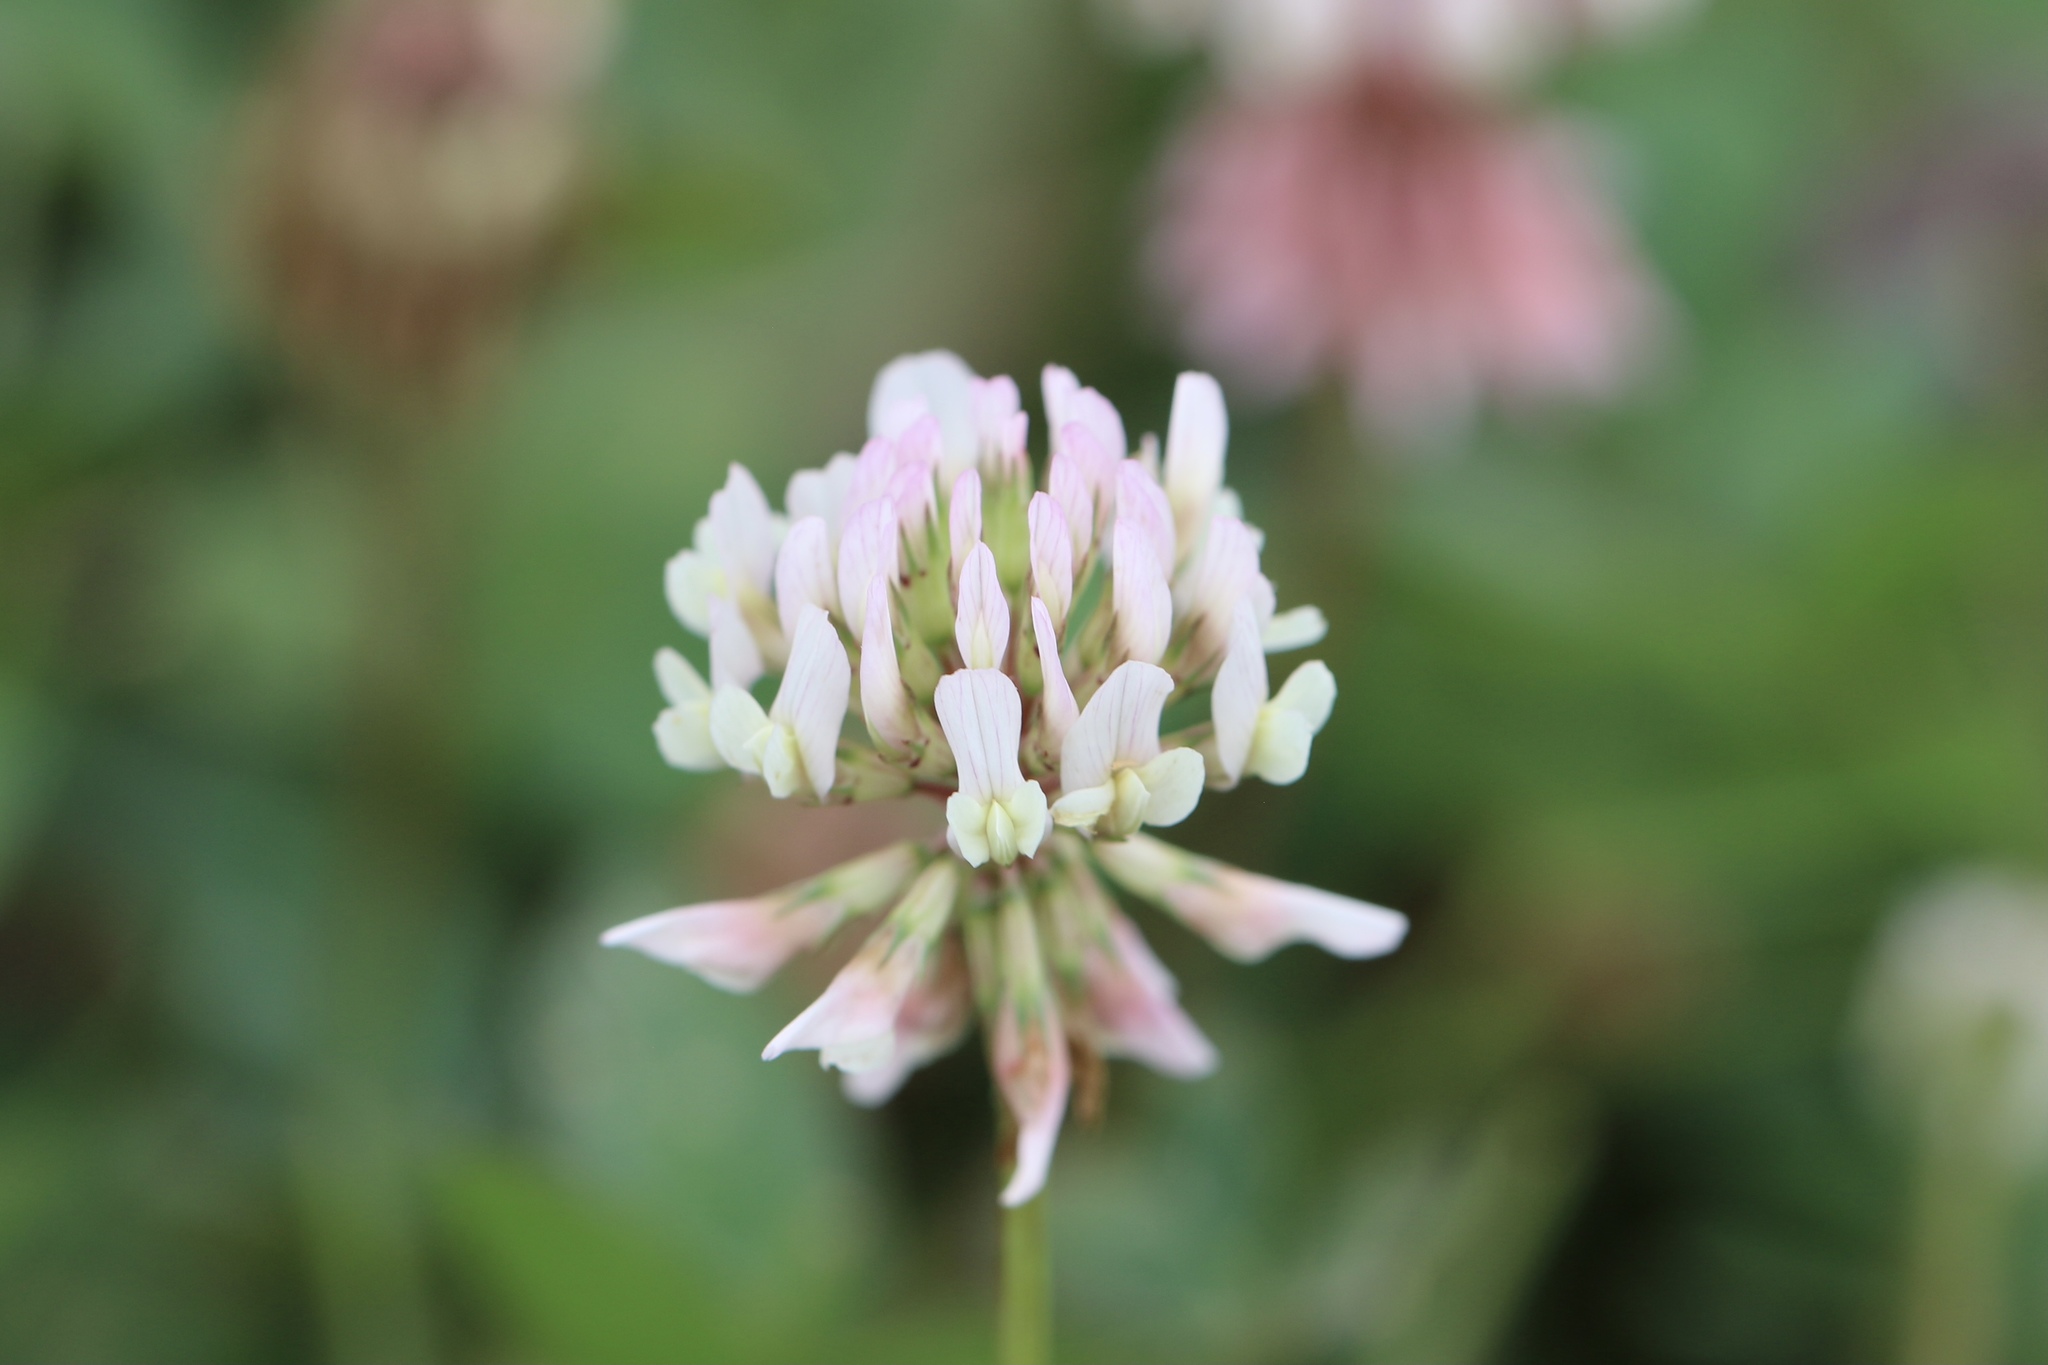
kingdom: Plantae
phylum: Tracheophyta
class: Magnoliopsida
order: Fabales
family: Fabaceae
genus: Trifolium
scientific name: Trifolium repens
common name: White clover
